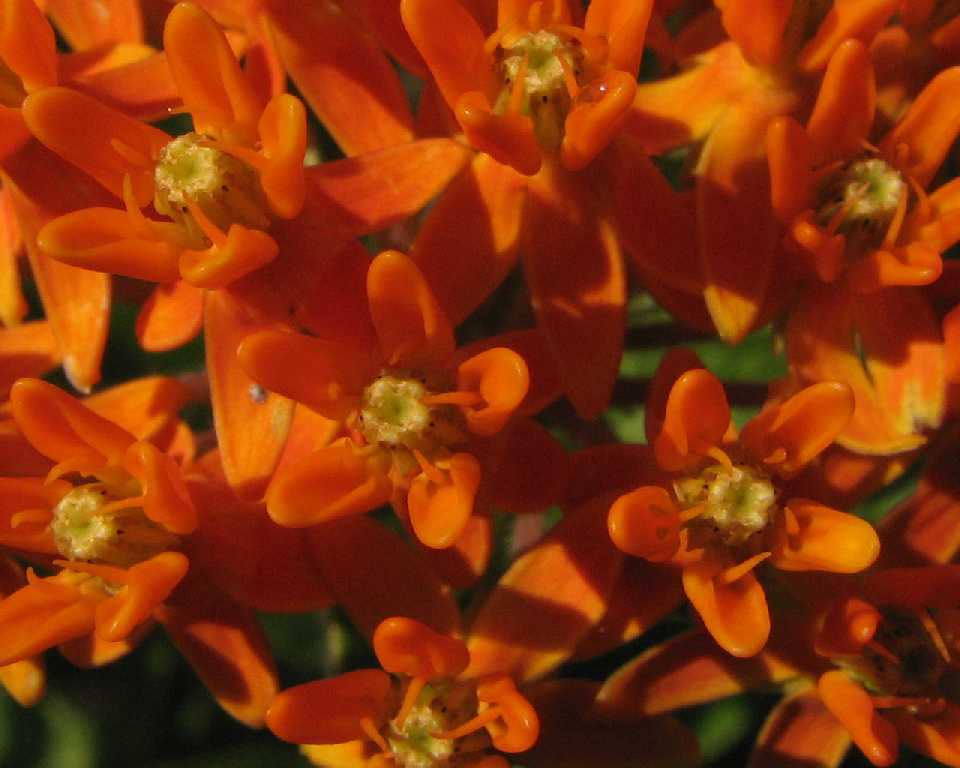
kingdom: Plantae
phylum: Tracheophyta
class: Magnoliopsida
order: Gentianales
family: Apocynaceae
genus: Asclepias
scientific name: Asclepias tuberosa
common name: Butterfly milkweed
